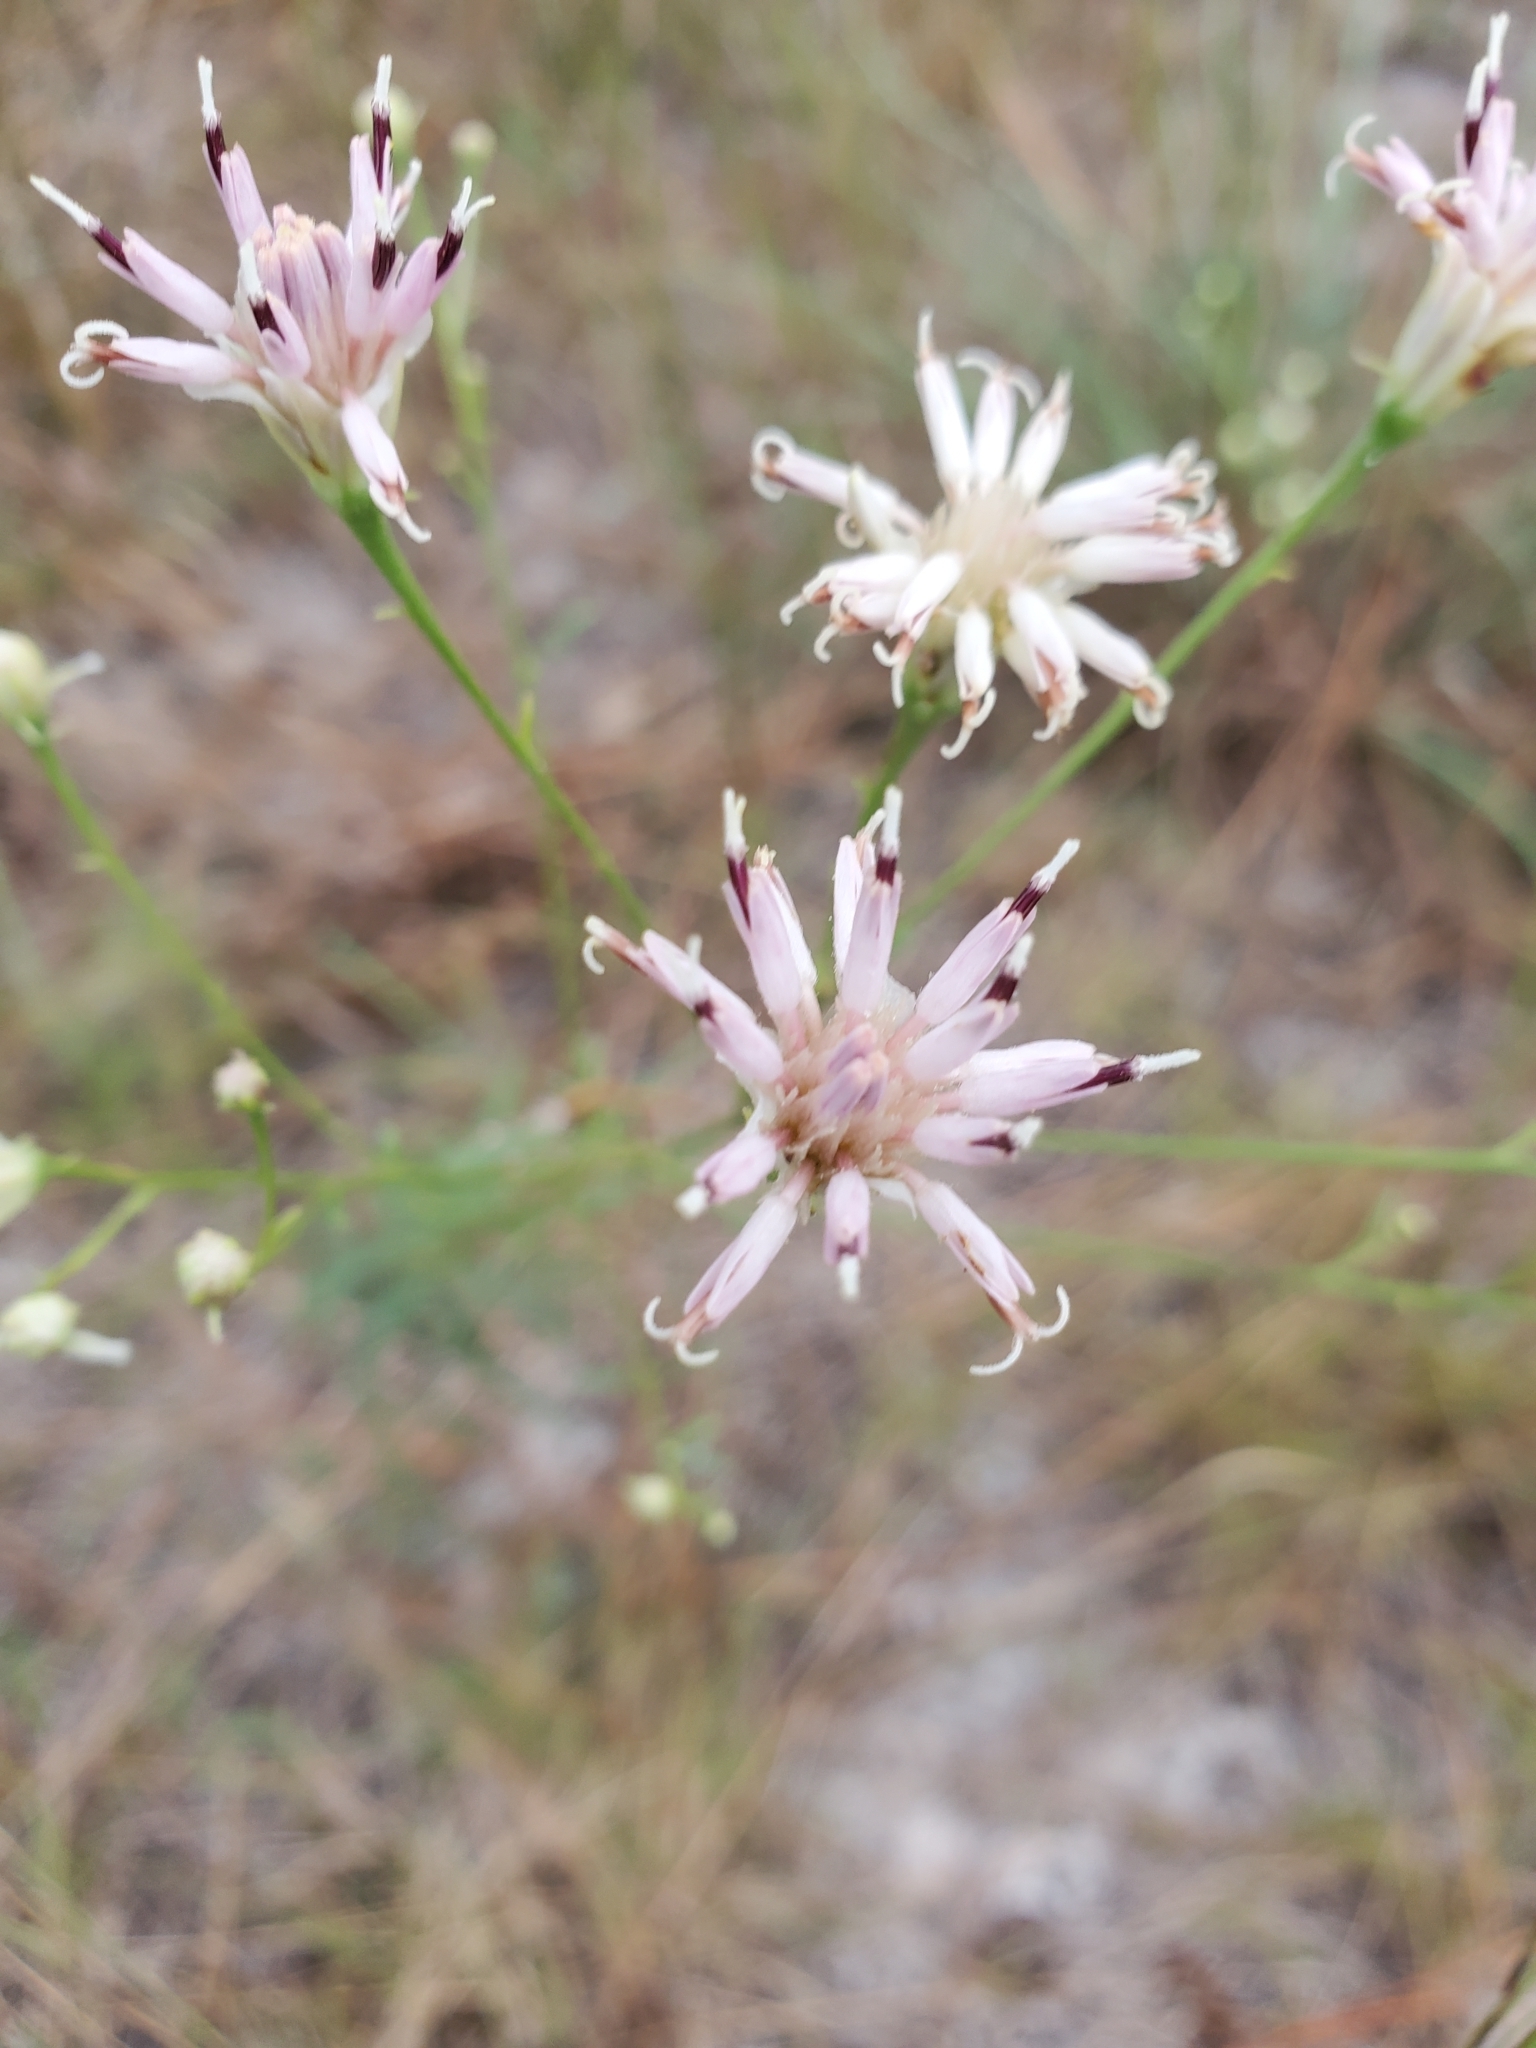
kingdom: Plantae
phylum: Tracheophyta
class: Magnoliopsida
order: Asterales
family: Asteraceae
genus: Palafoxia
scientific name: Palafoxia integrifolia
